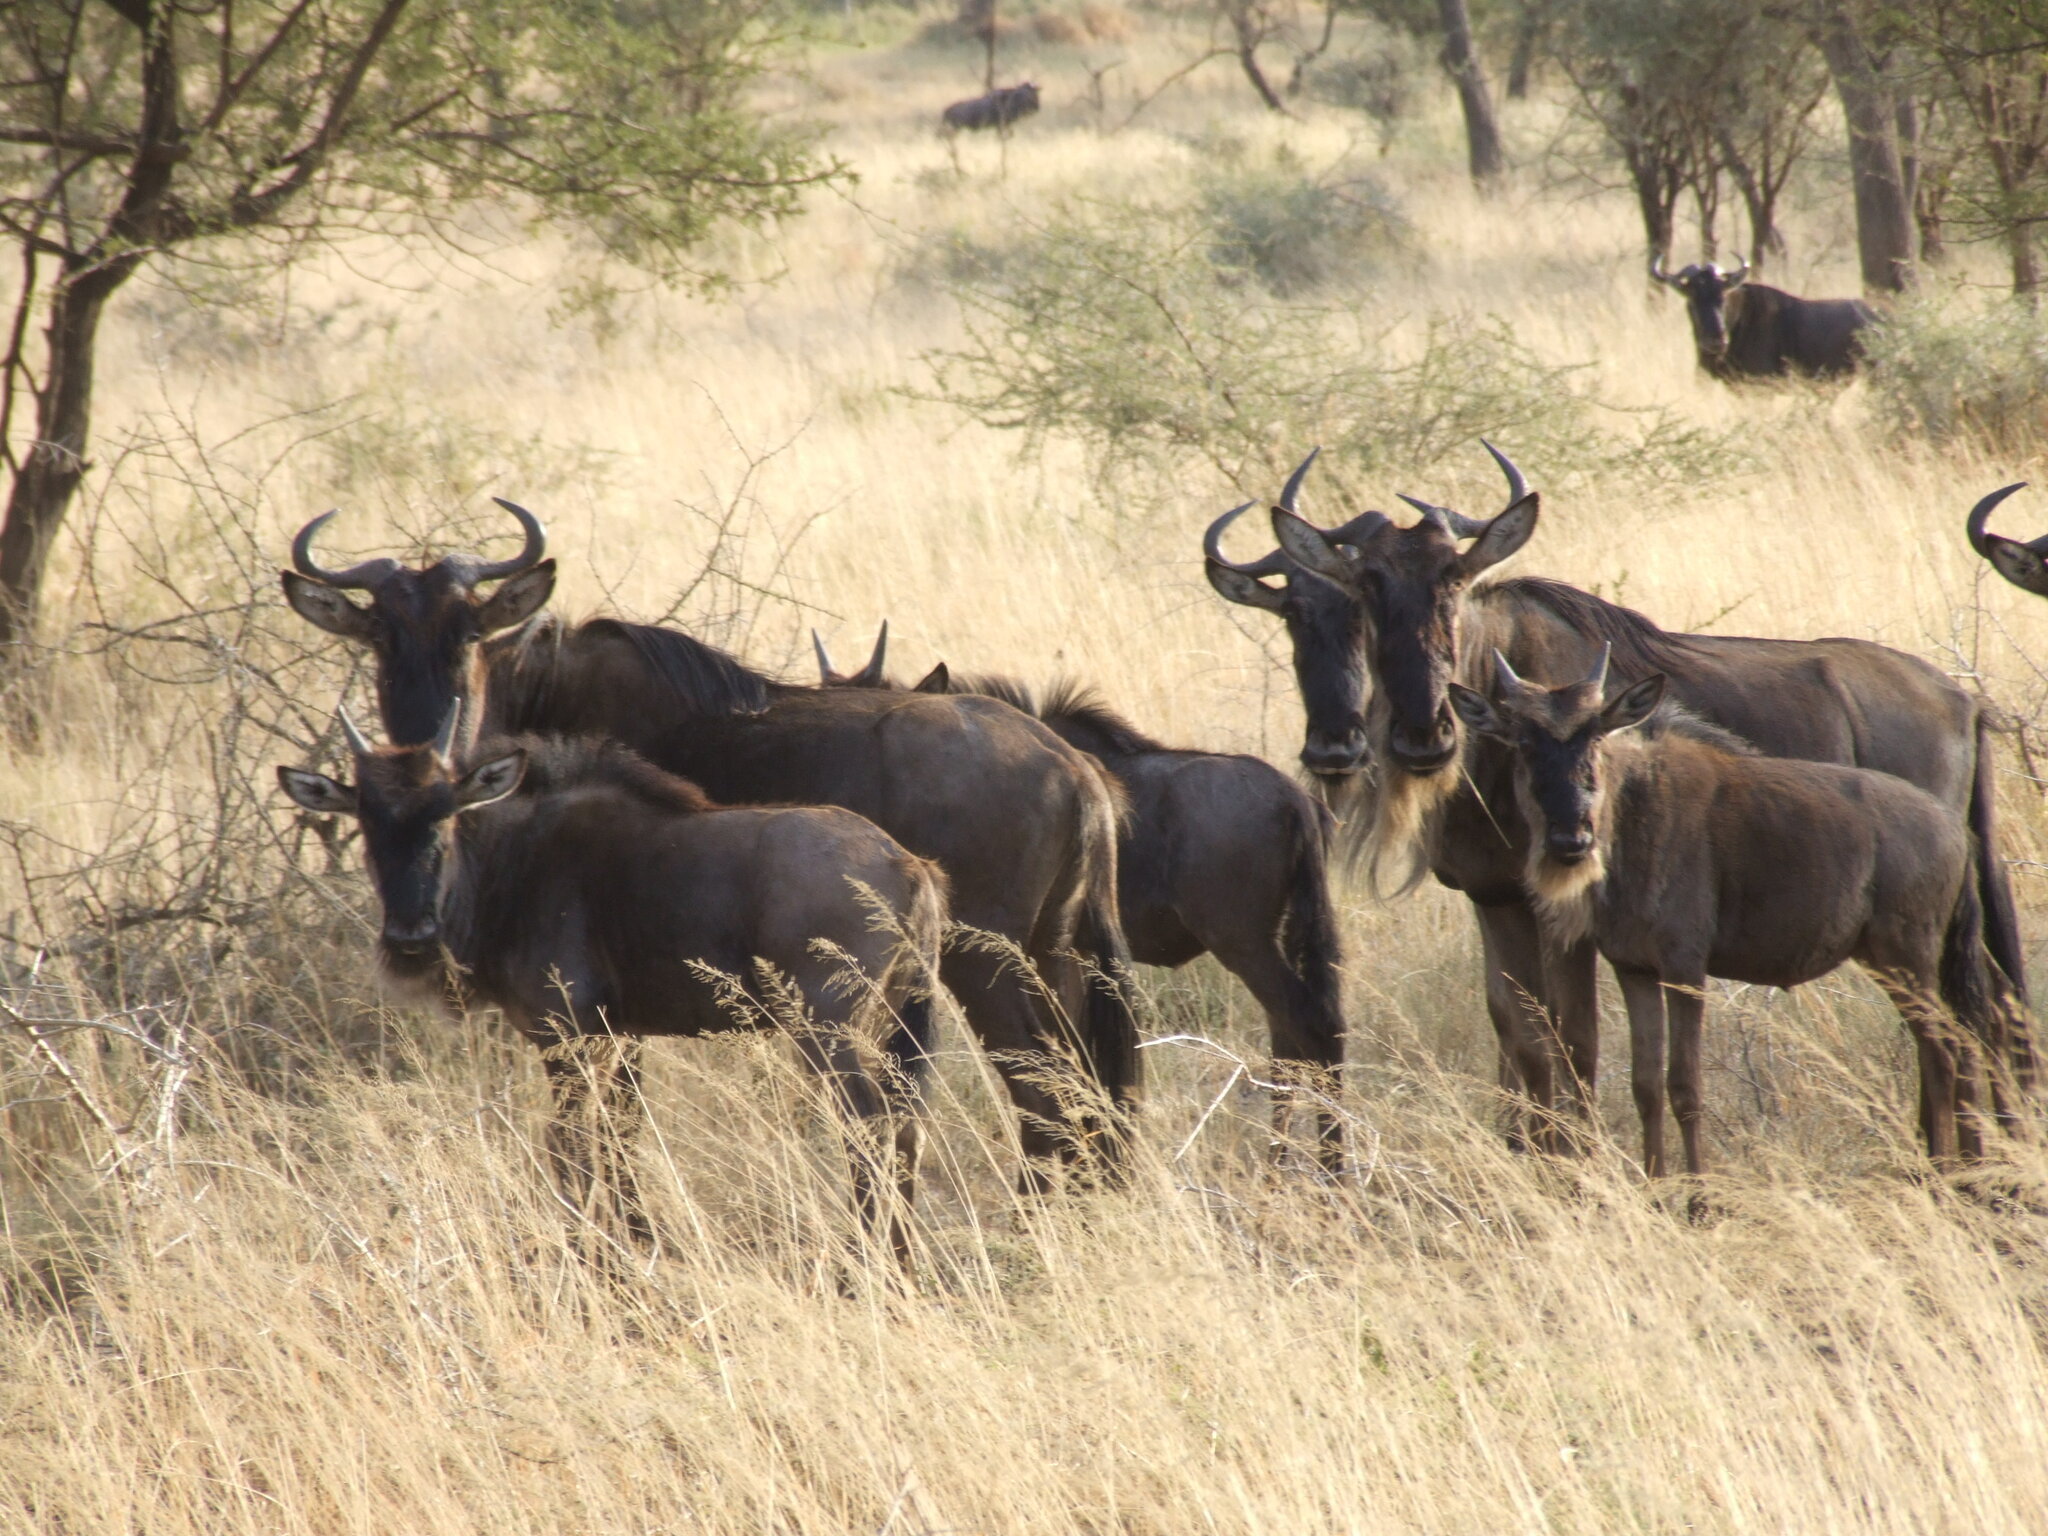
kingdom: Animalia
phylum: Chordata
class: Mammalia
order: Artiodactyla
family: Bovidae
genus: Connochaetes
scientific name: Connochaetes taurinus
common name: Blue wildebeest
